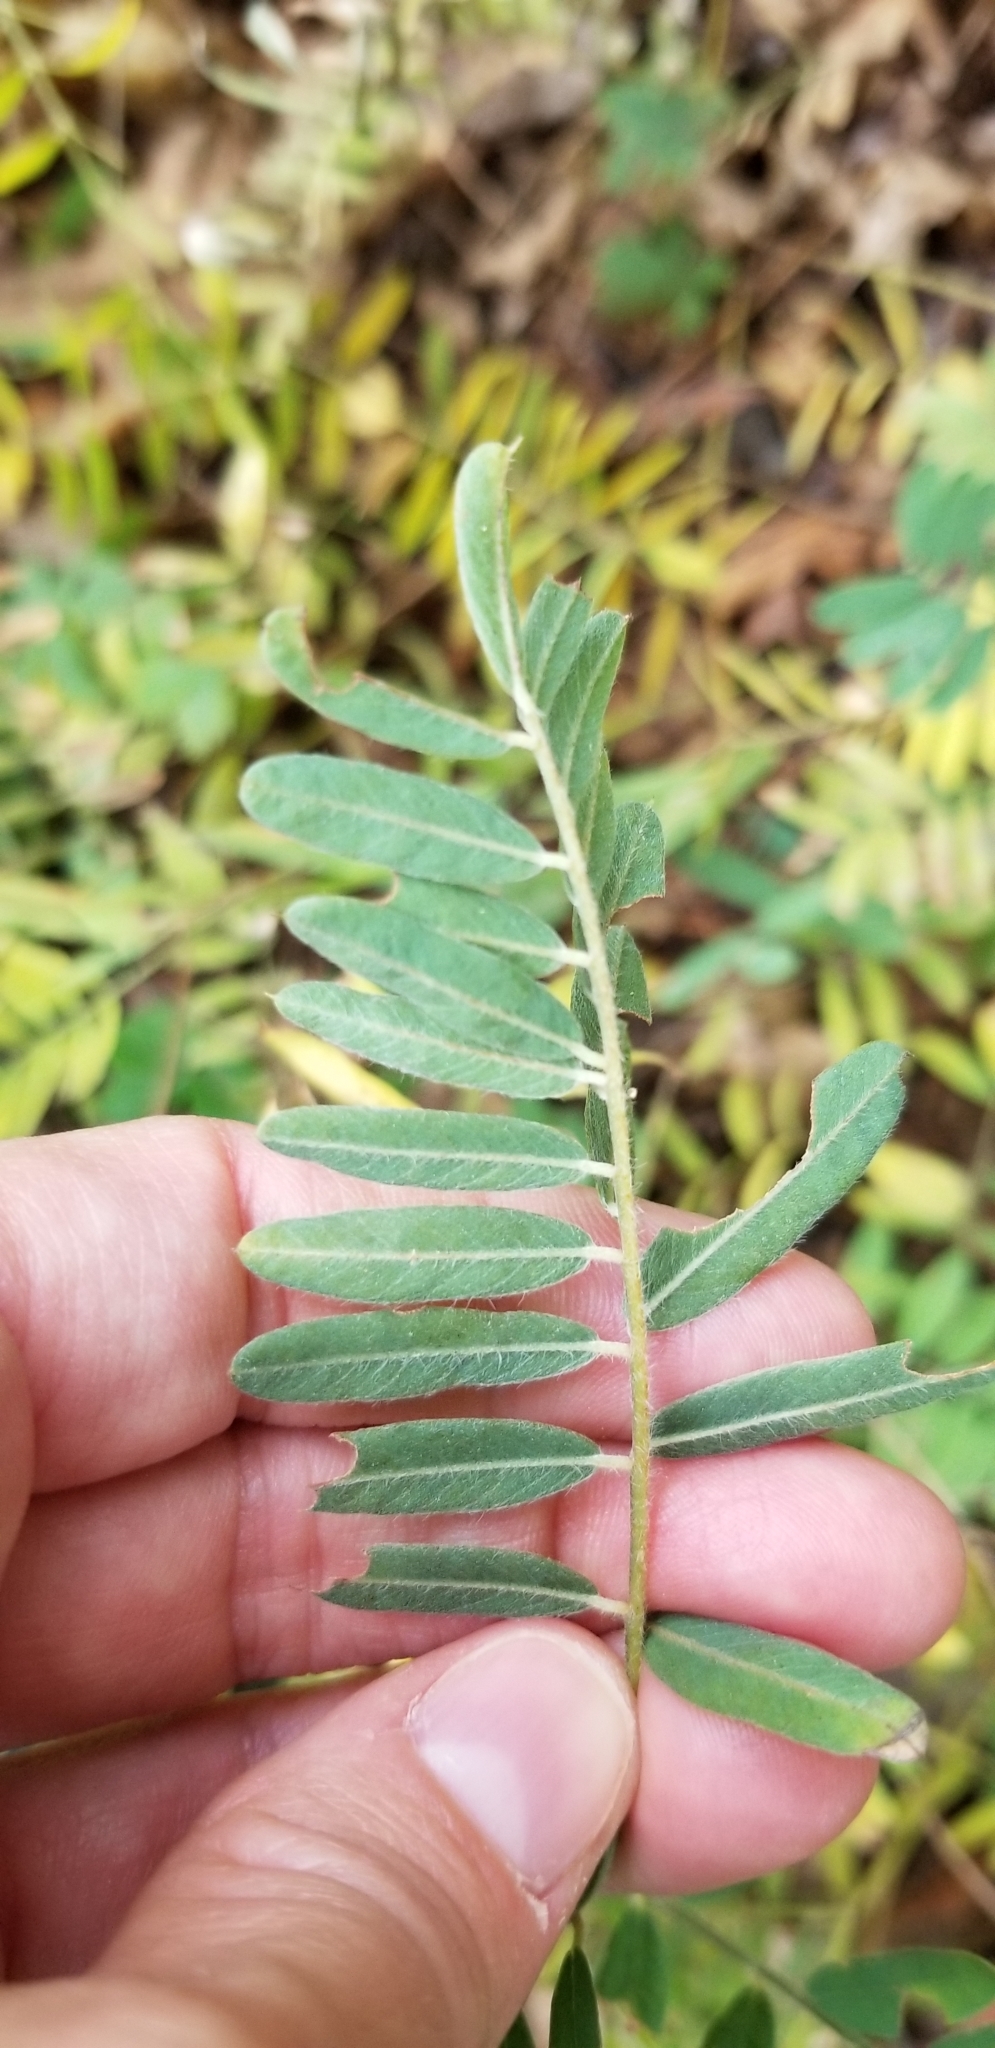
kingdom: Plantae
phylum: Tracheophyta
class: Magnoliopsida
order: Fabales
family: Fabaceae
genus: Tephrosia
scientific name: Tephrosia virginiana
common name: Rabbit-pea
